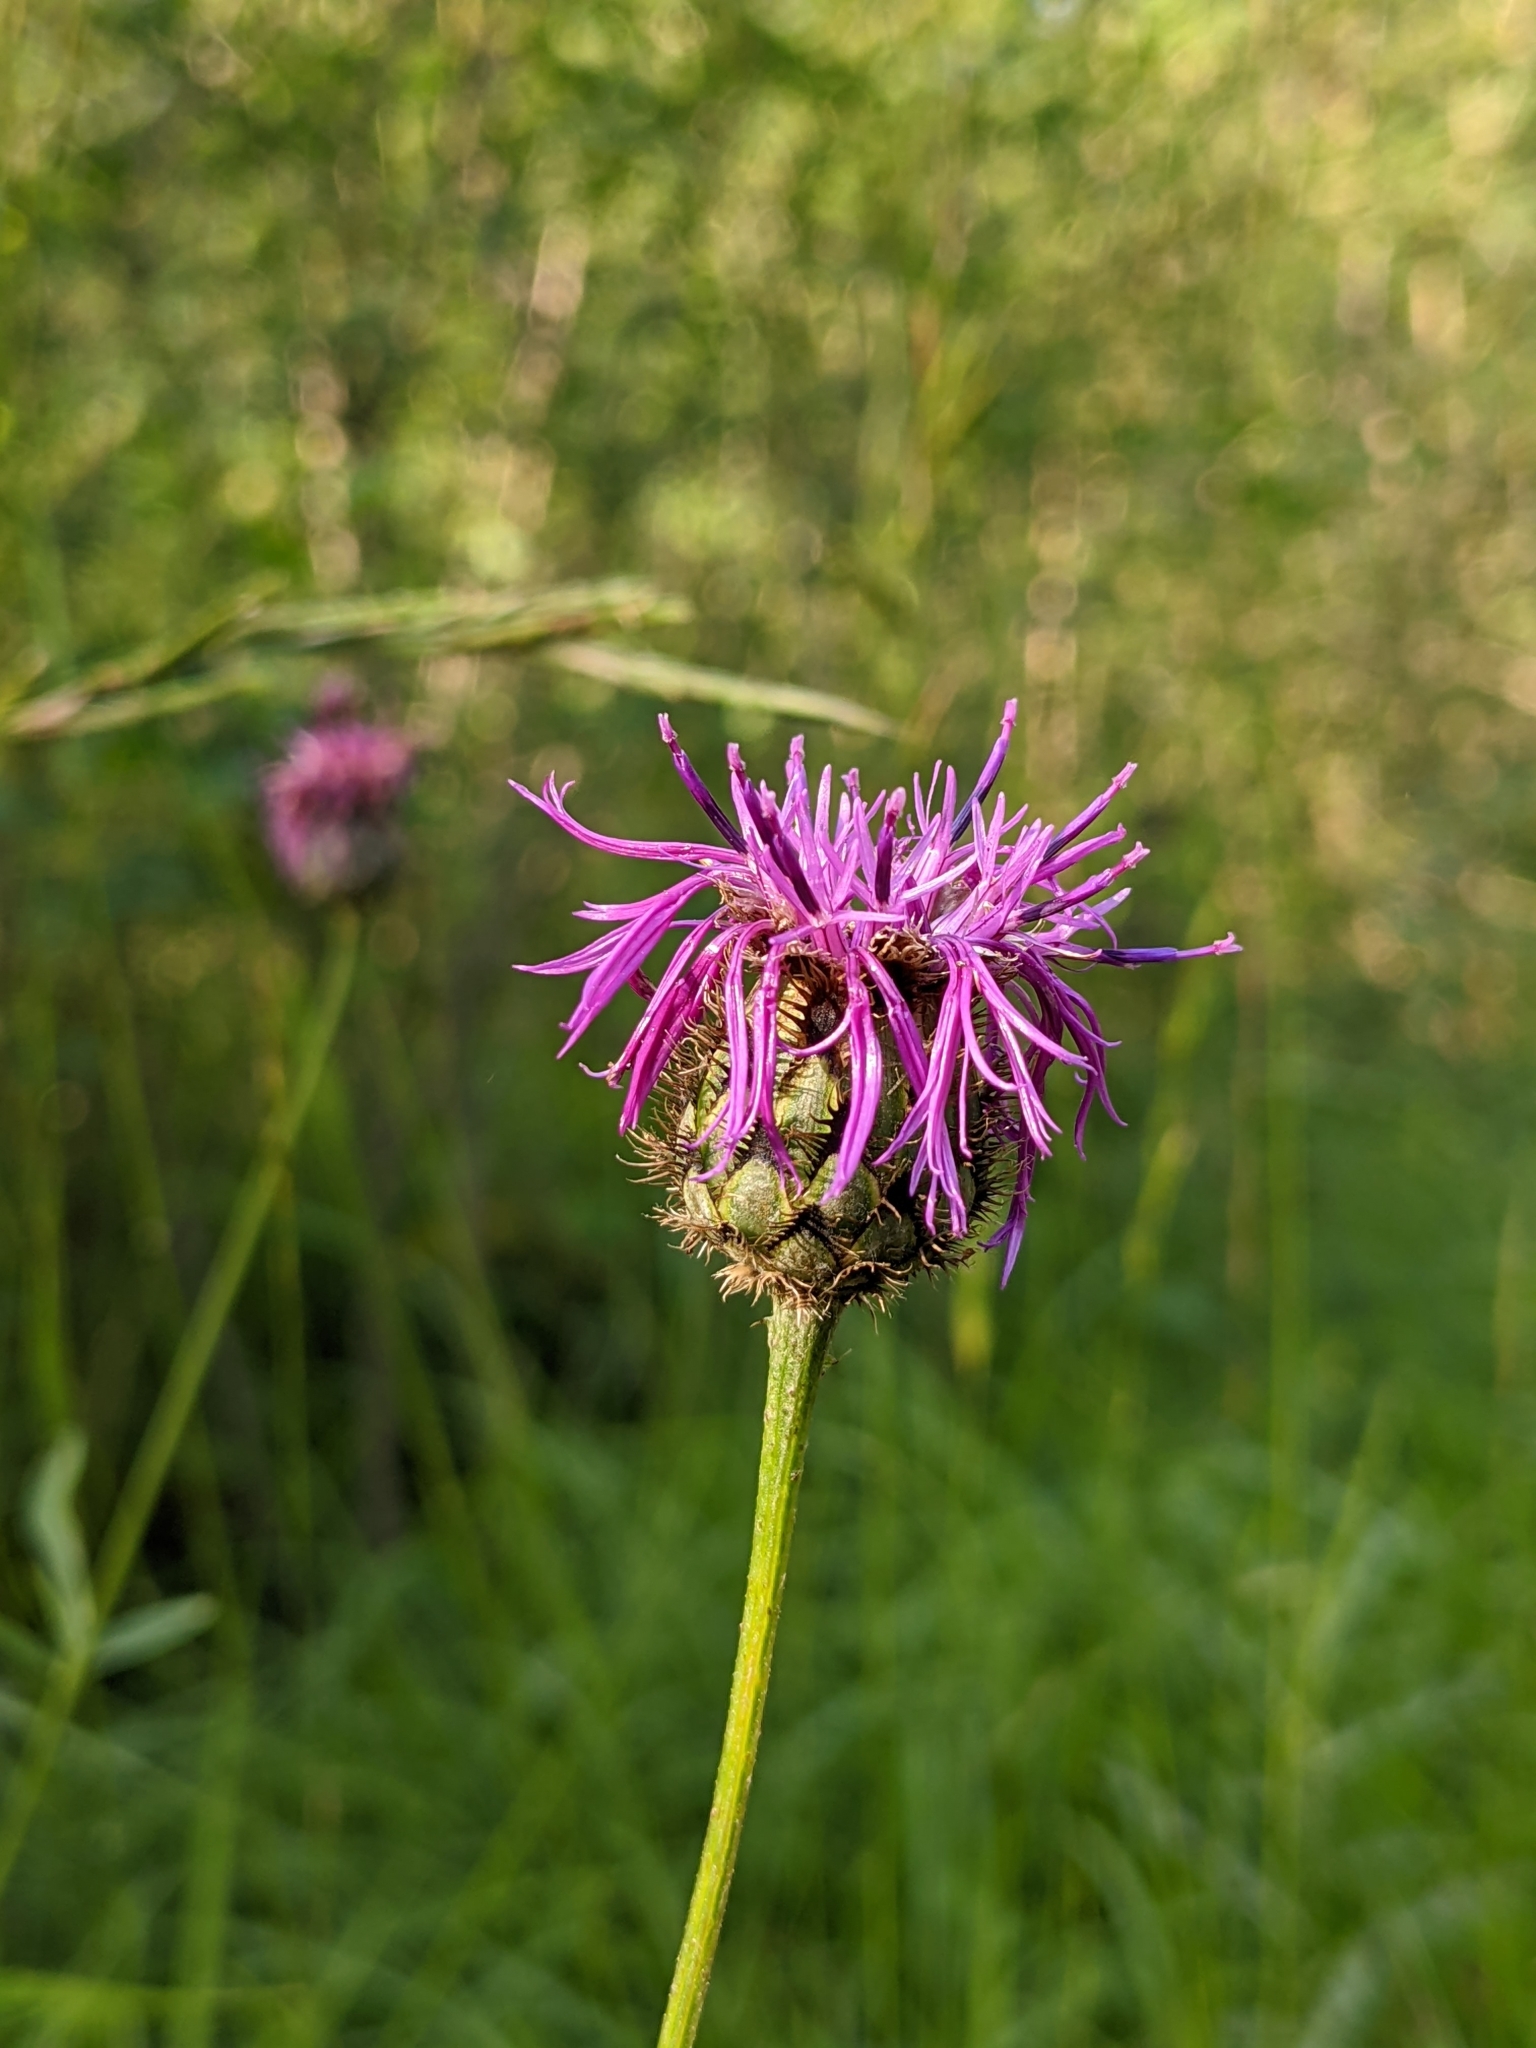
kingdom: Plantae
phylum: Tracheophyta
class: Magnoliopsida
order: Asterales
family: Asteraceae
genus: Centaurea
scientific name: Centaurea scabiosa
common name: Greater knapweed
